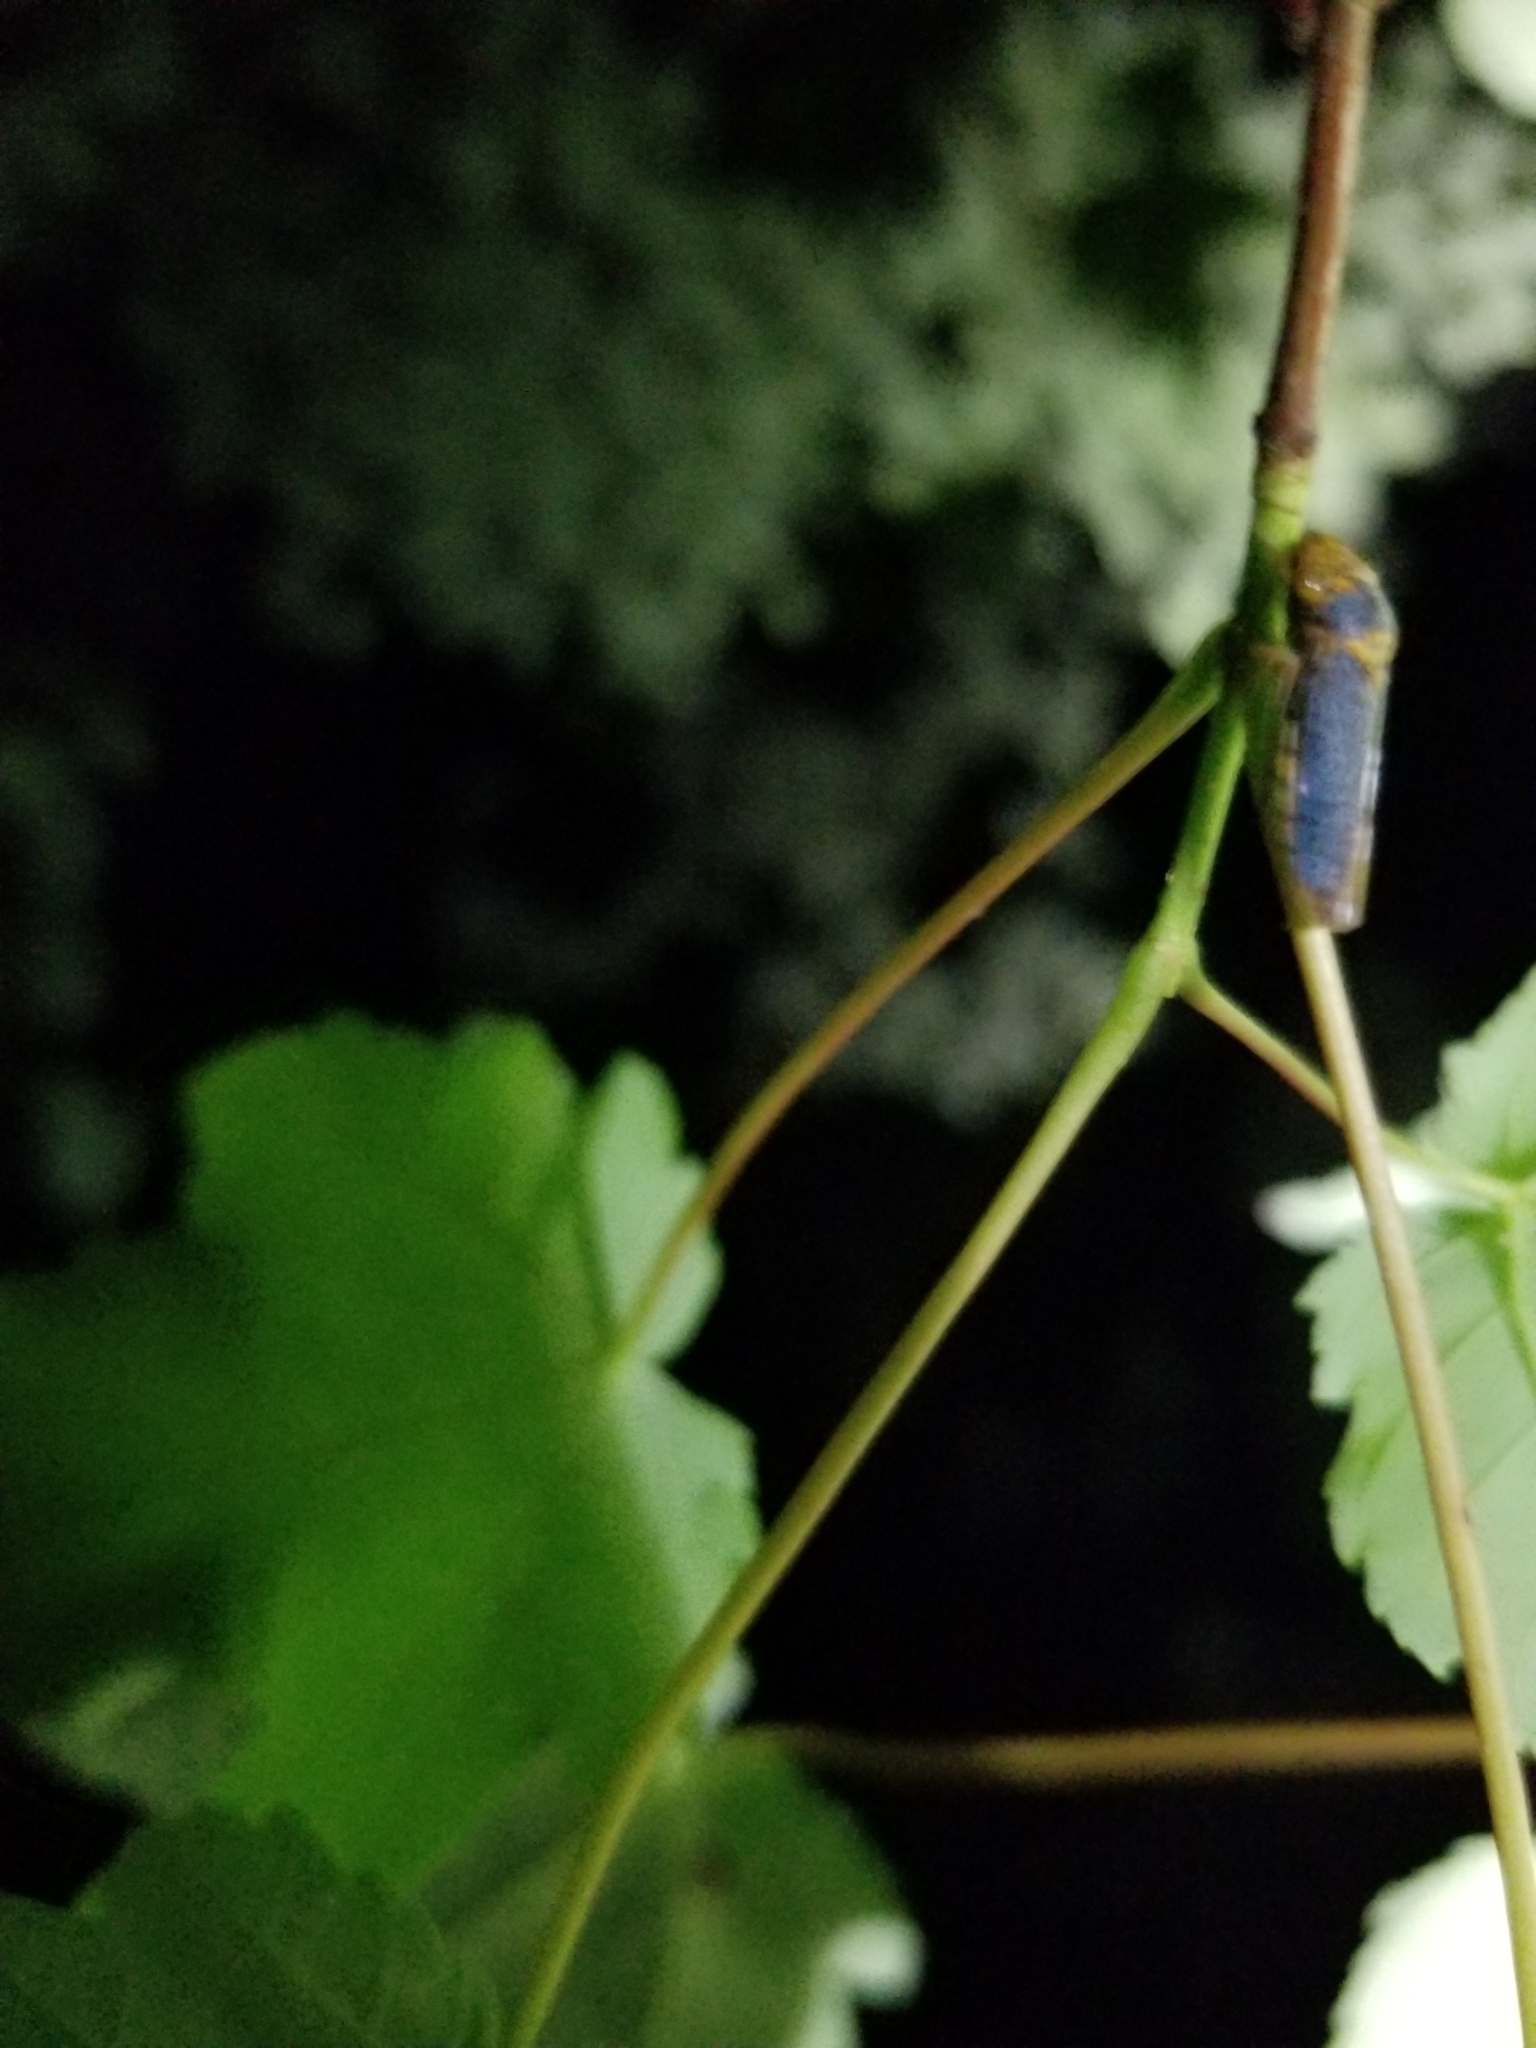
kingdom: Animalia
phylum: Arthropoda
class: Insecta
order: Hemiptera
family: Cicadellidae
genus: Oncometopia
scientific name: Oncometopia orbona
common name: Broad-headed sharpshooter
